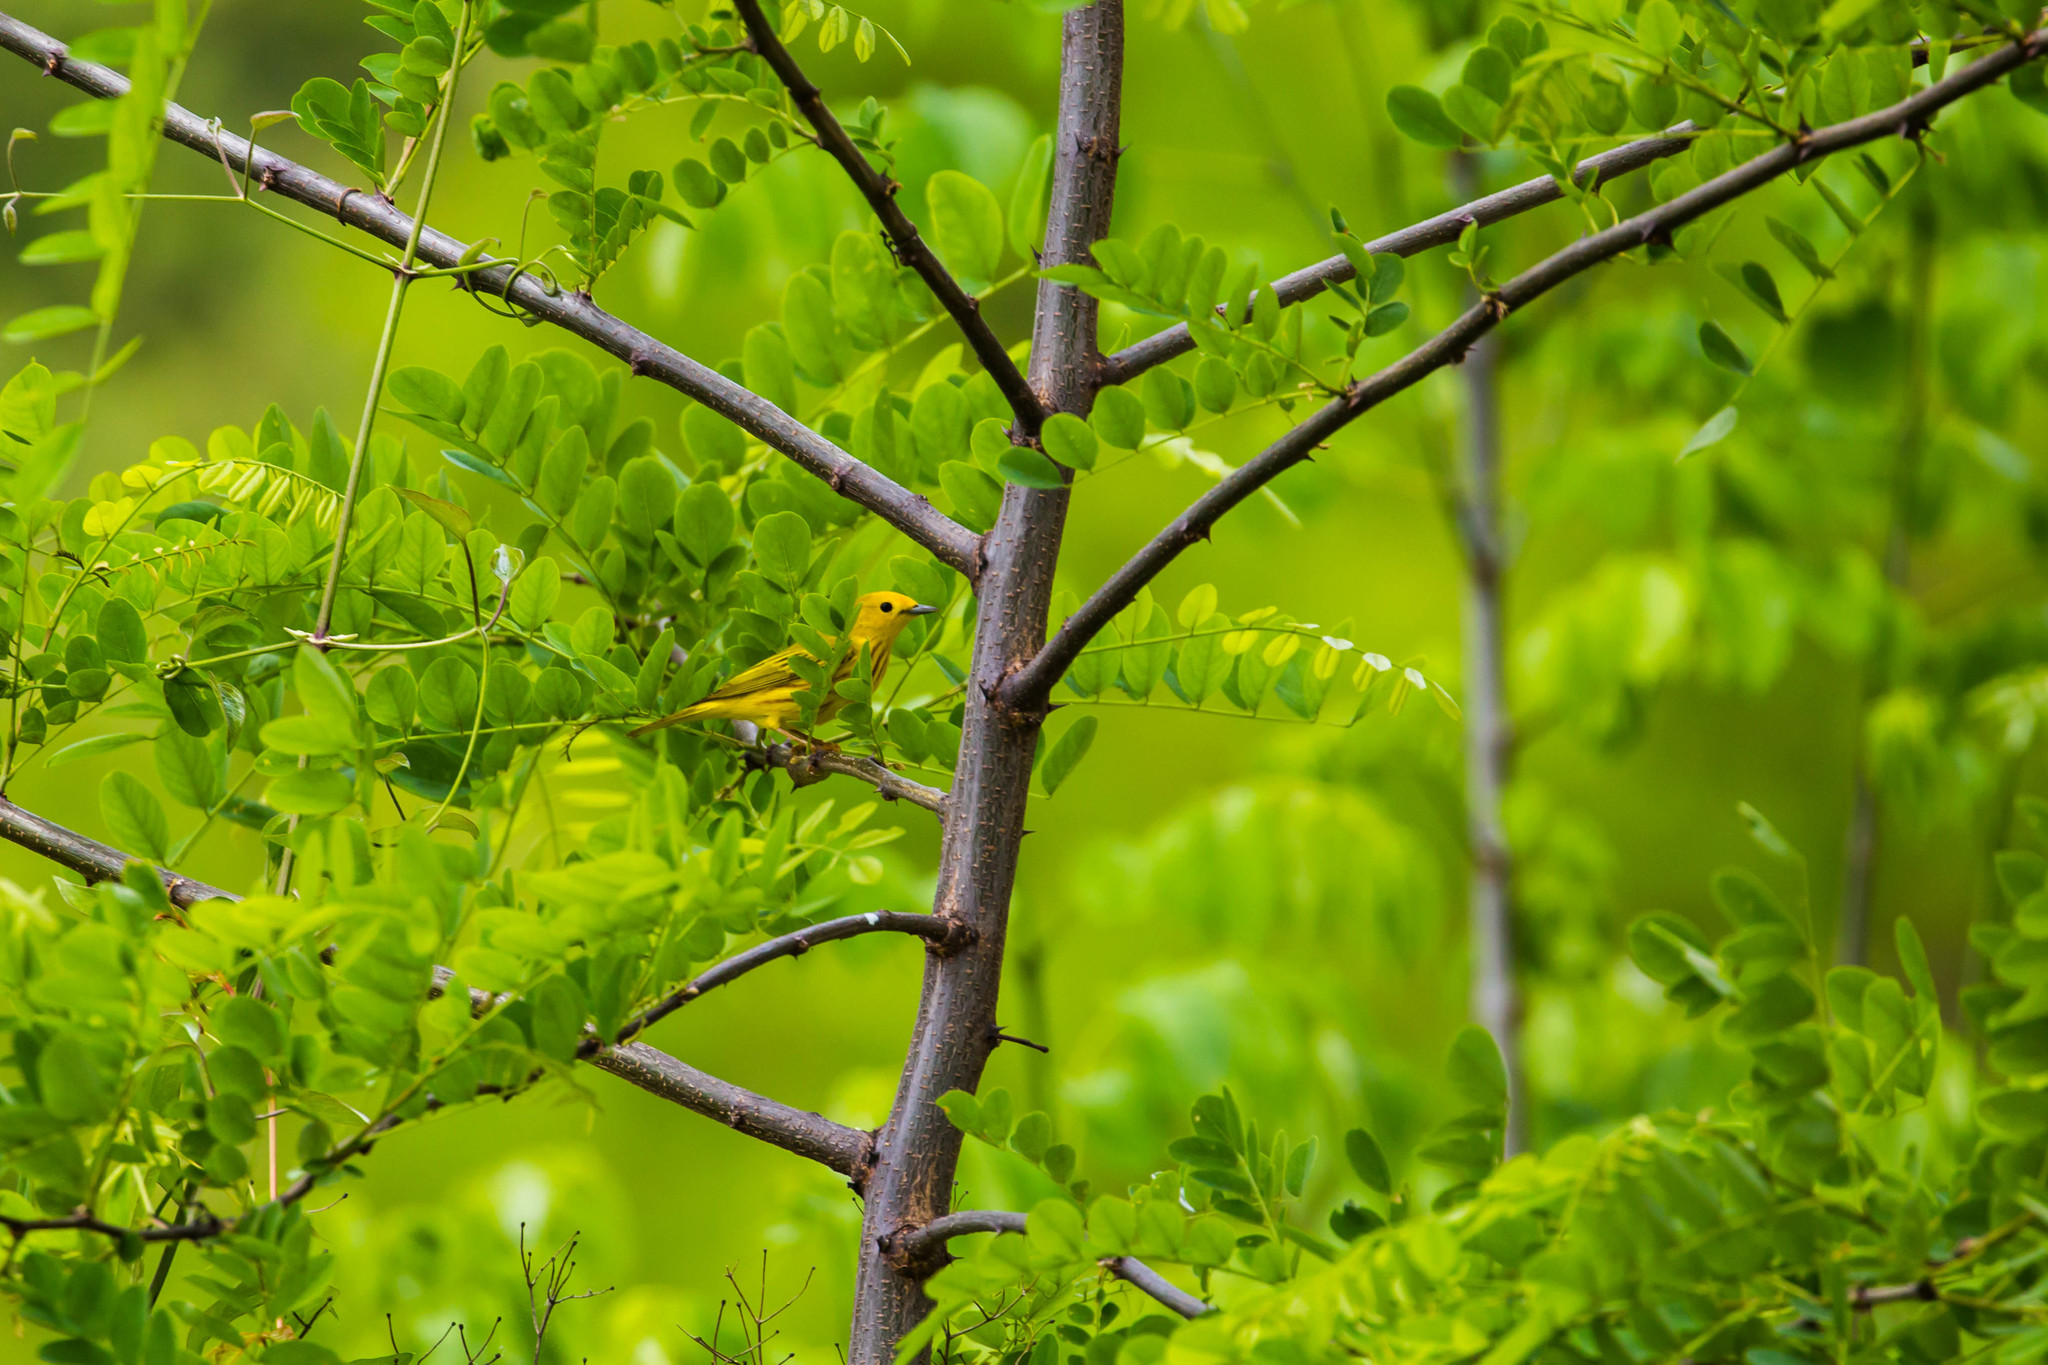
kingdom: Animalia
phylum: Chordata
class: Aves
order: Passeriformes
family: Parulidae
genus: Setophaga
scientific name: Setophaga petechia
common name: Yellow warbler
